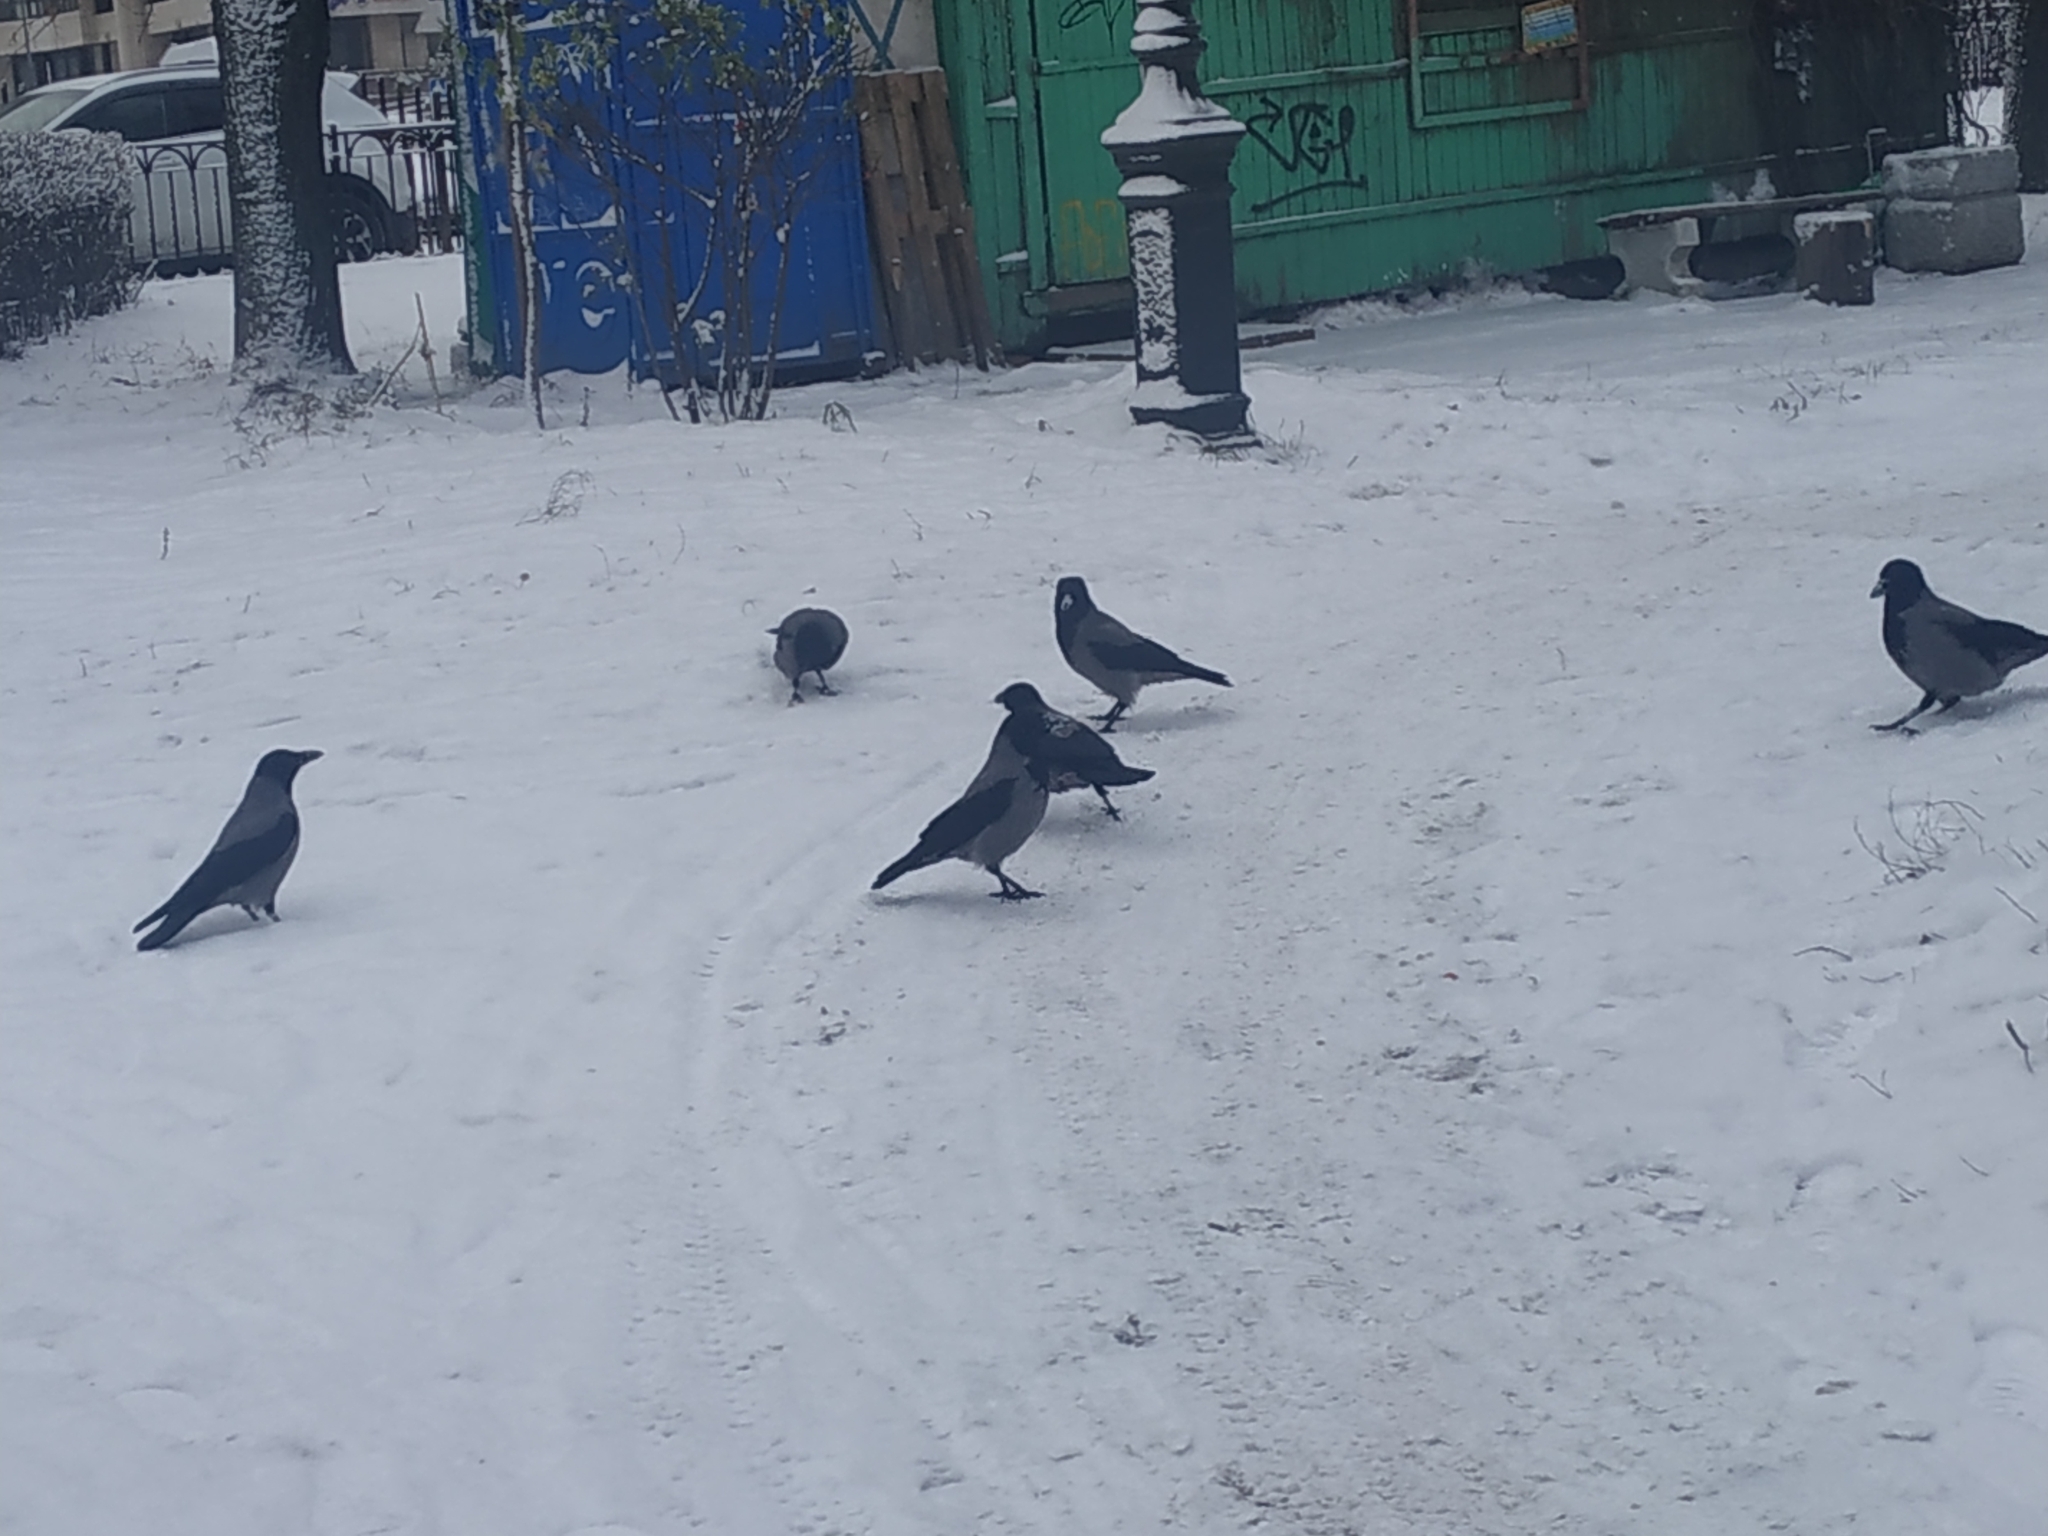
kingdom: Animalia
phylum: Chordata
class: Aves
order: Passeriformes
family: Corvidae
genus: Corvus
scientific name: Corvus cornix
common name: Hooded crow
